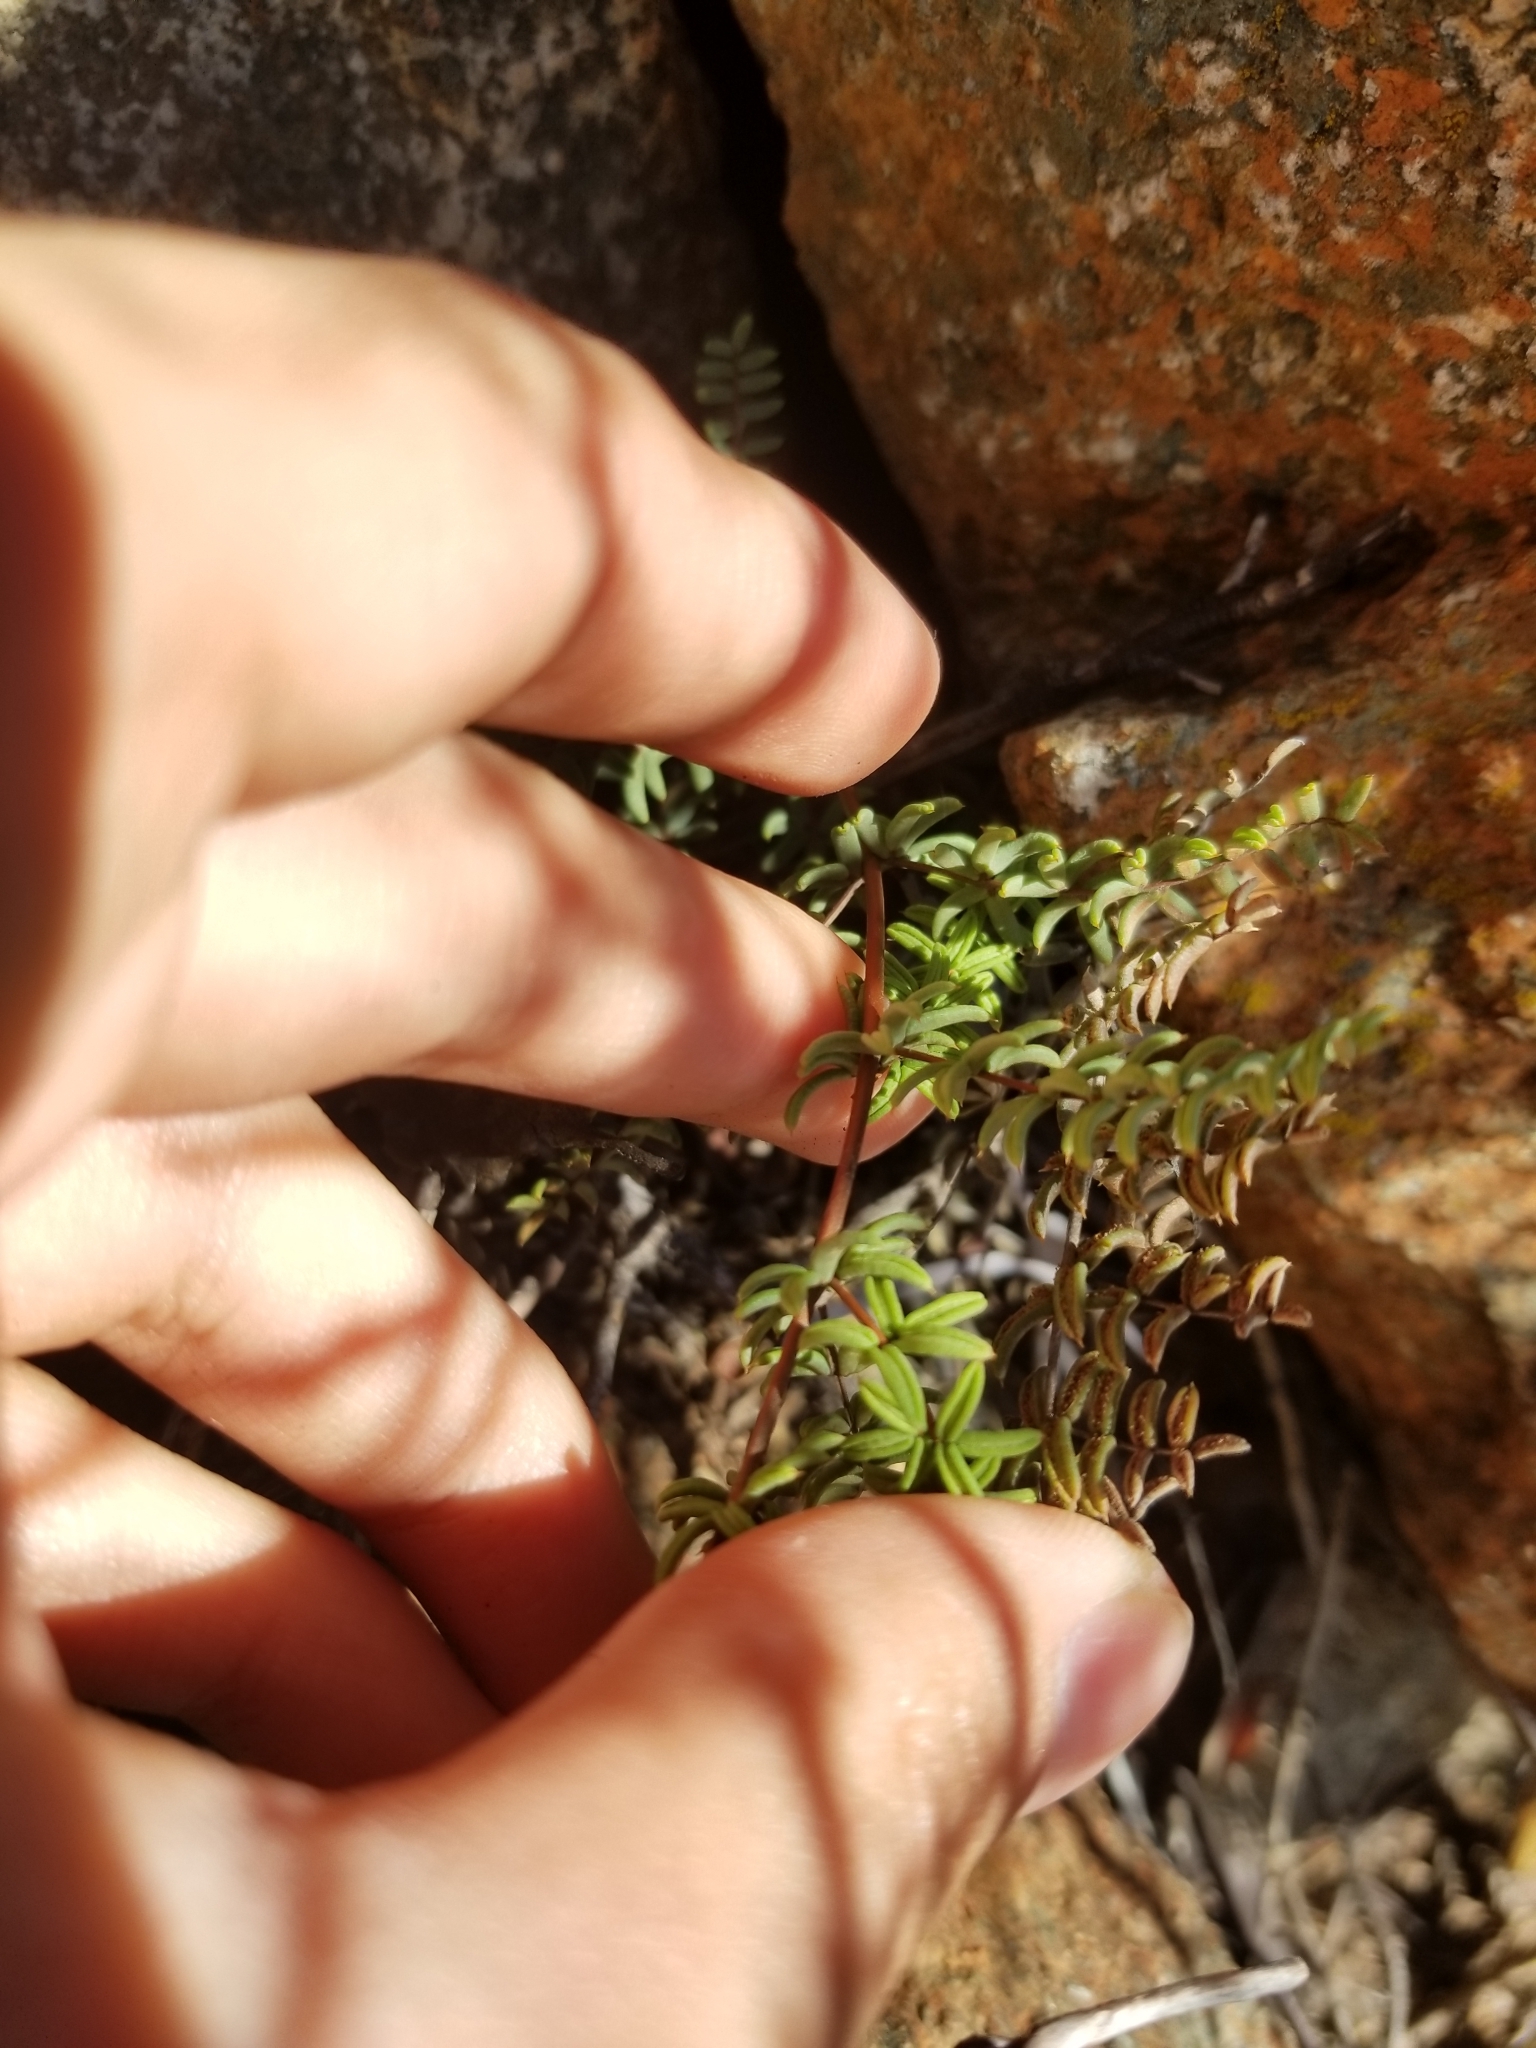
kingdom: Plantae
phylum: Tracheophyta
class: Polypodiopsida
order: Polypodiales
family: Pteridaceae
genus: Pellaea
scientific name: Pellaea mucronata
